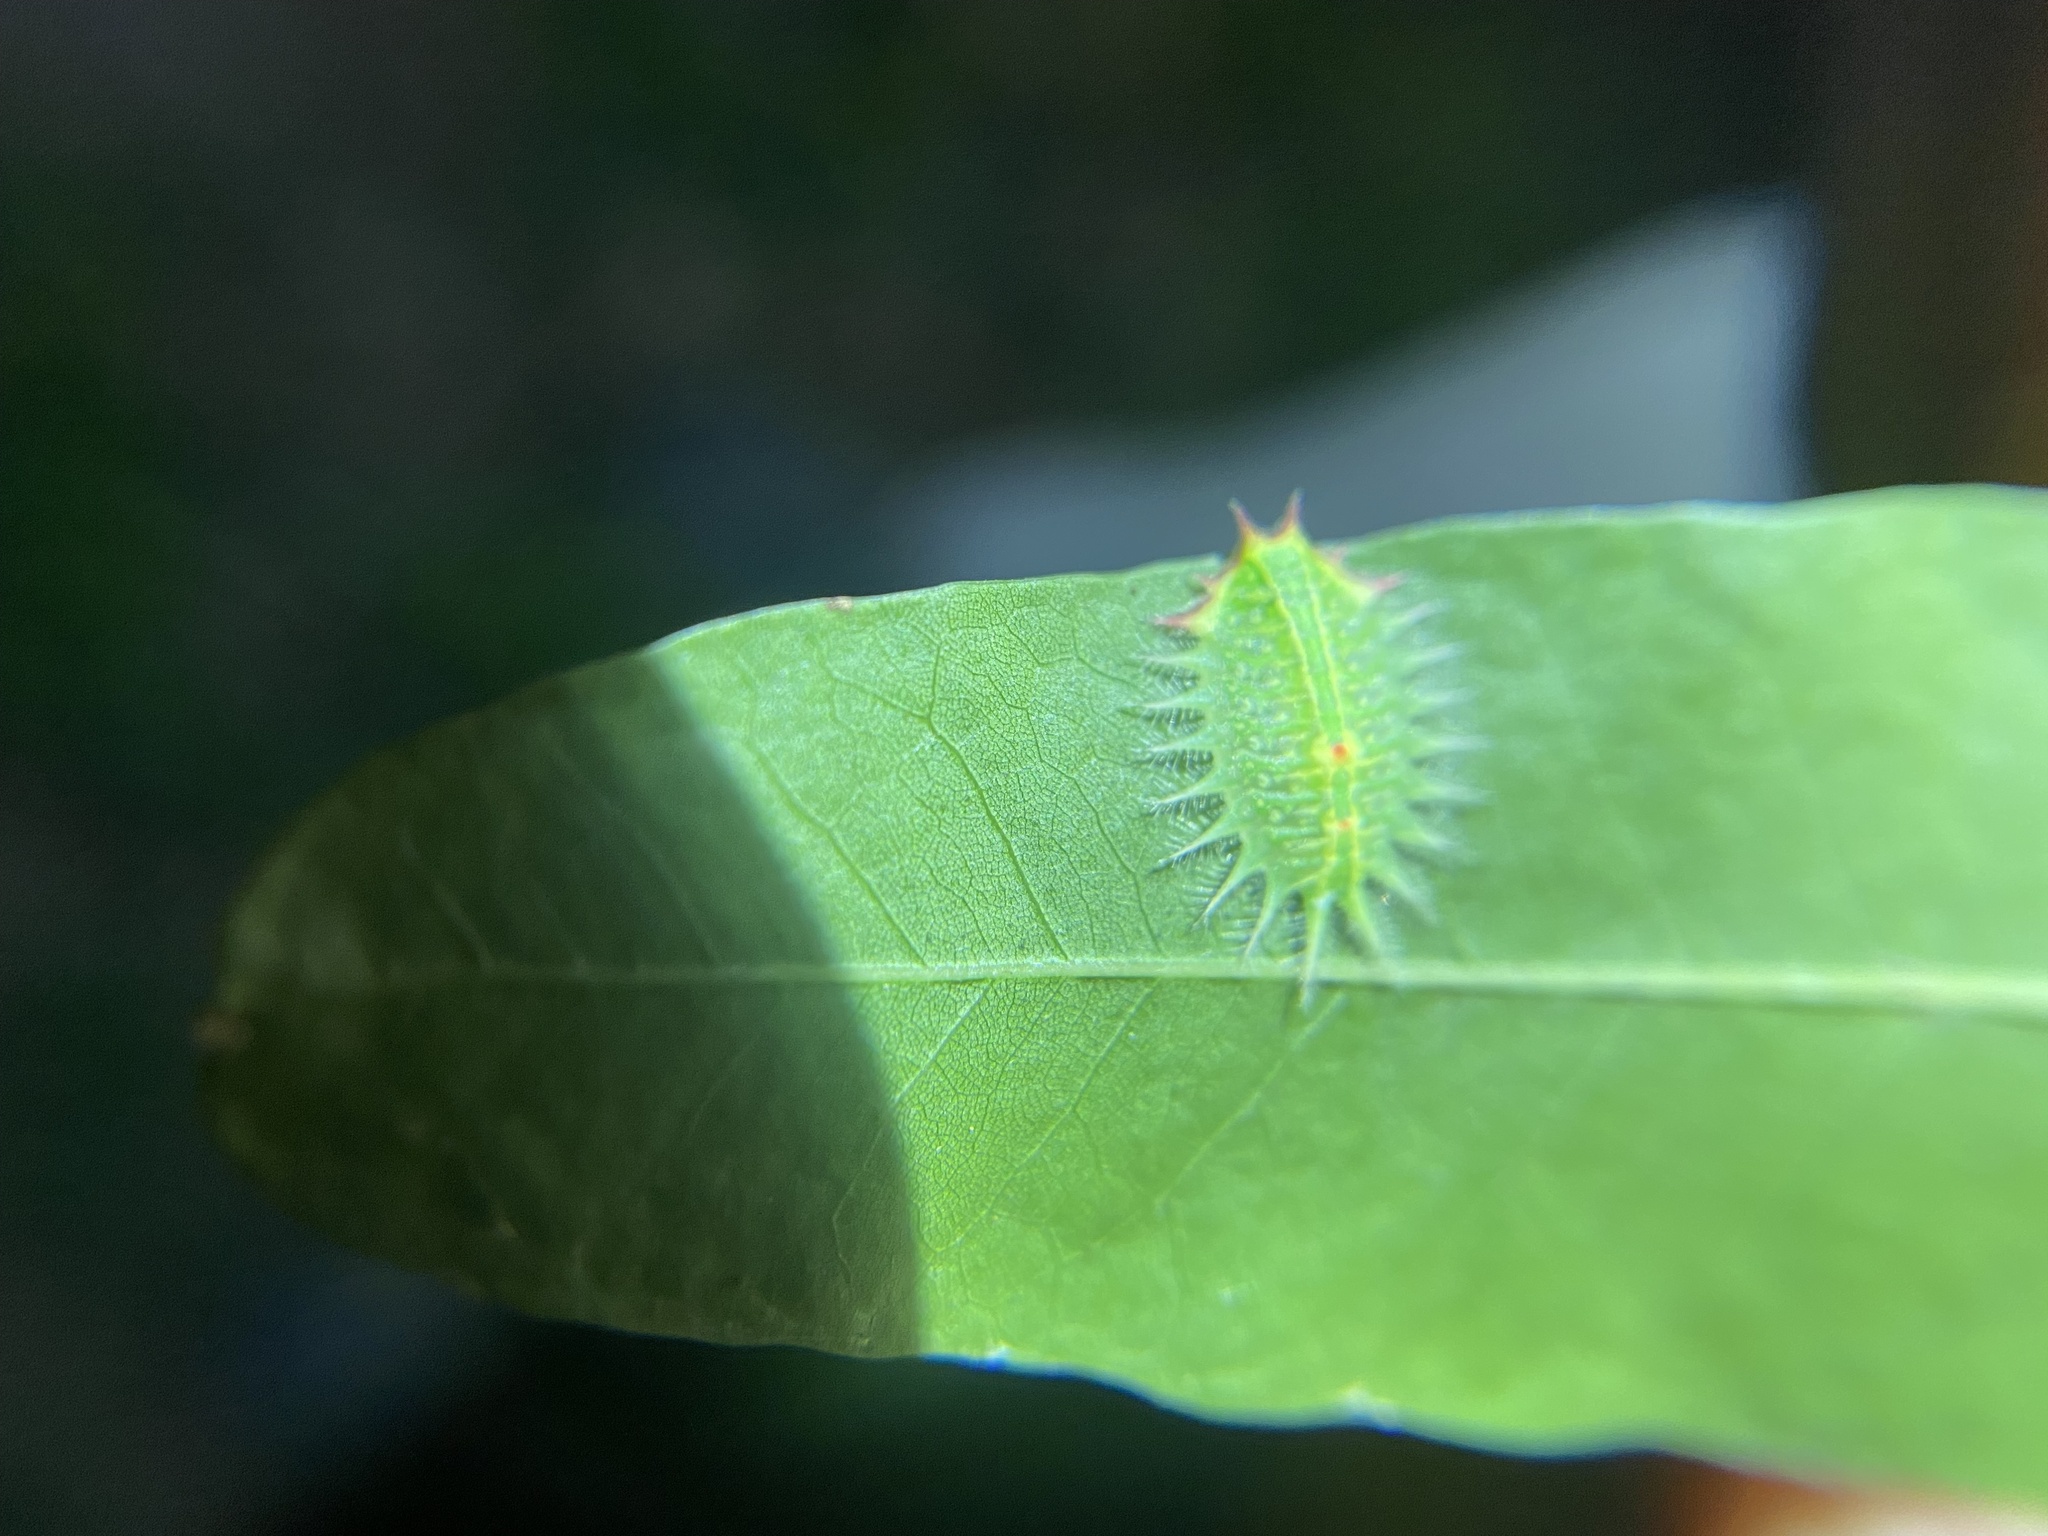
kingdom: Animalia
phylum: Arthropoda
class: Insecta
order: Lepidoptera
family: Limacodidae
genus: Isa
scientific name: Isa textula
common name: Crowned slug moth
